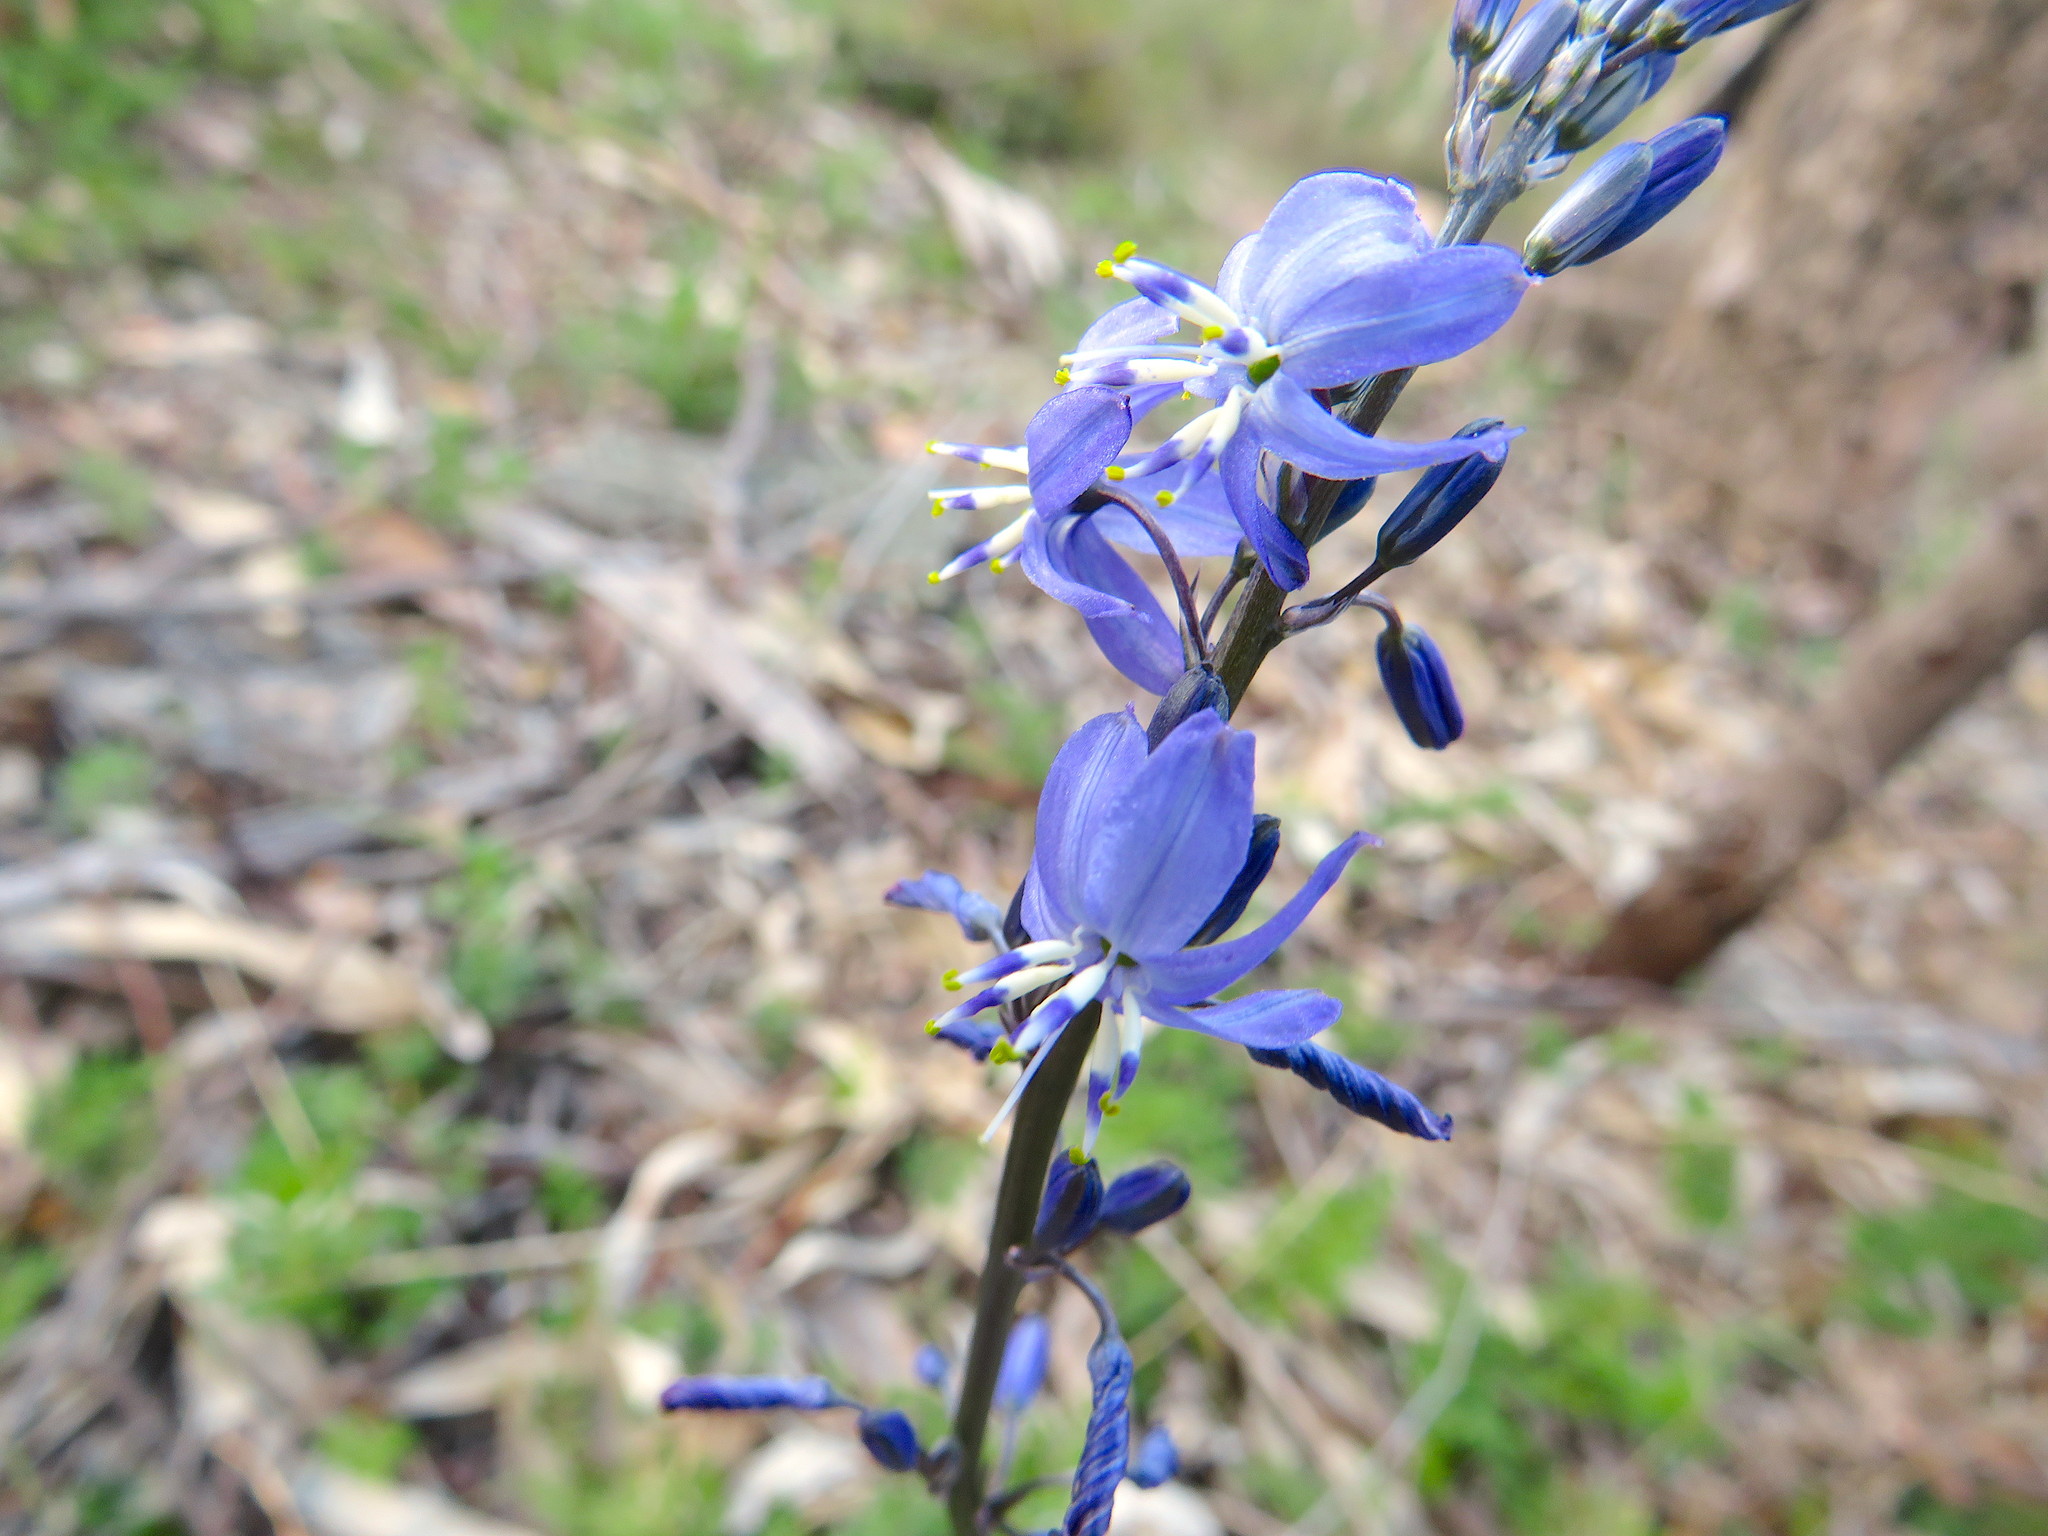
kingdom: Plantae
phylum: Tracheophyta
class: Liliopsida
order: Asparagales
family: Asphodelaceae
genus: Caesia
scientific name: Caesia calliantha
